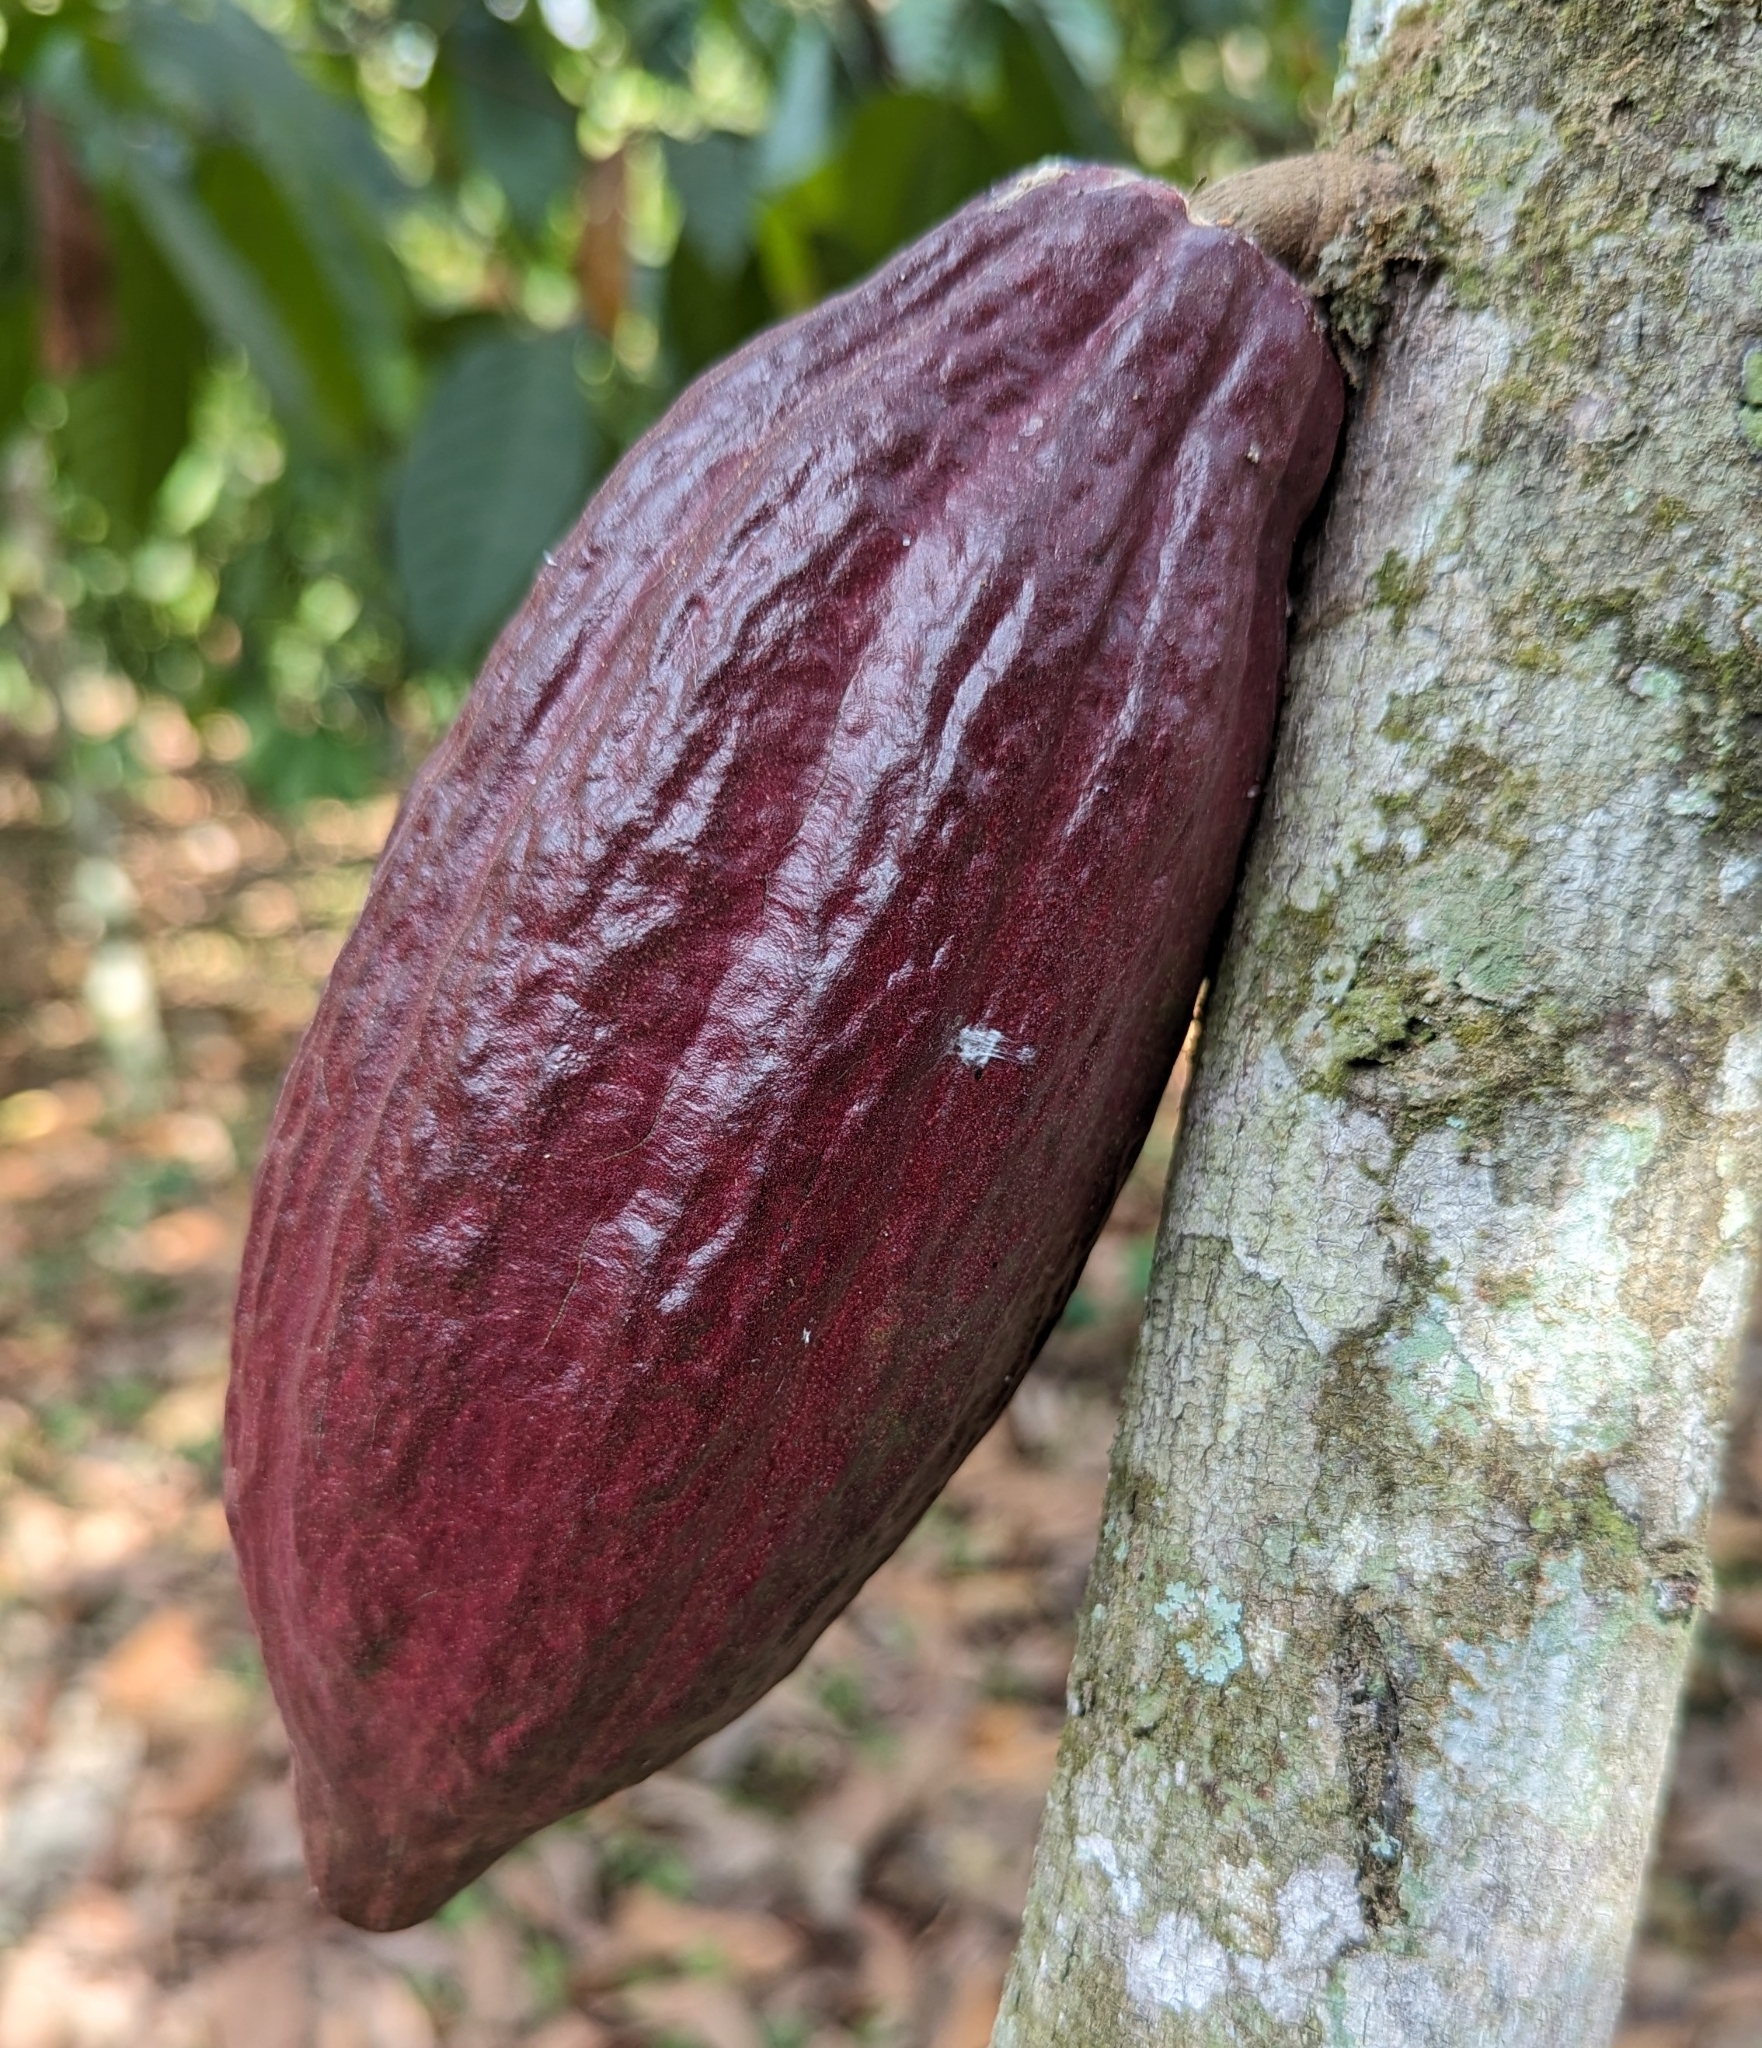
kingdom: Plantae
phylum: Tracheophyta
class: Magnoliopsida
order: Malvales
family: Malvaceae
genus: Theobroma
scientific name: Theobroma cacao
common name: Cocoa
